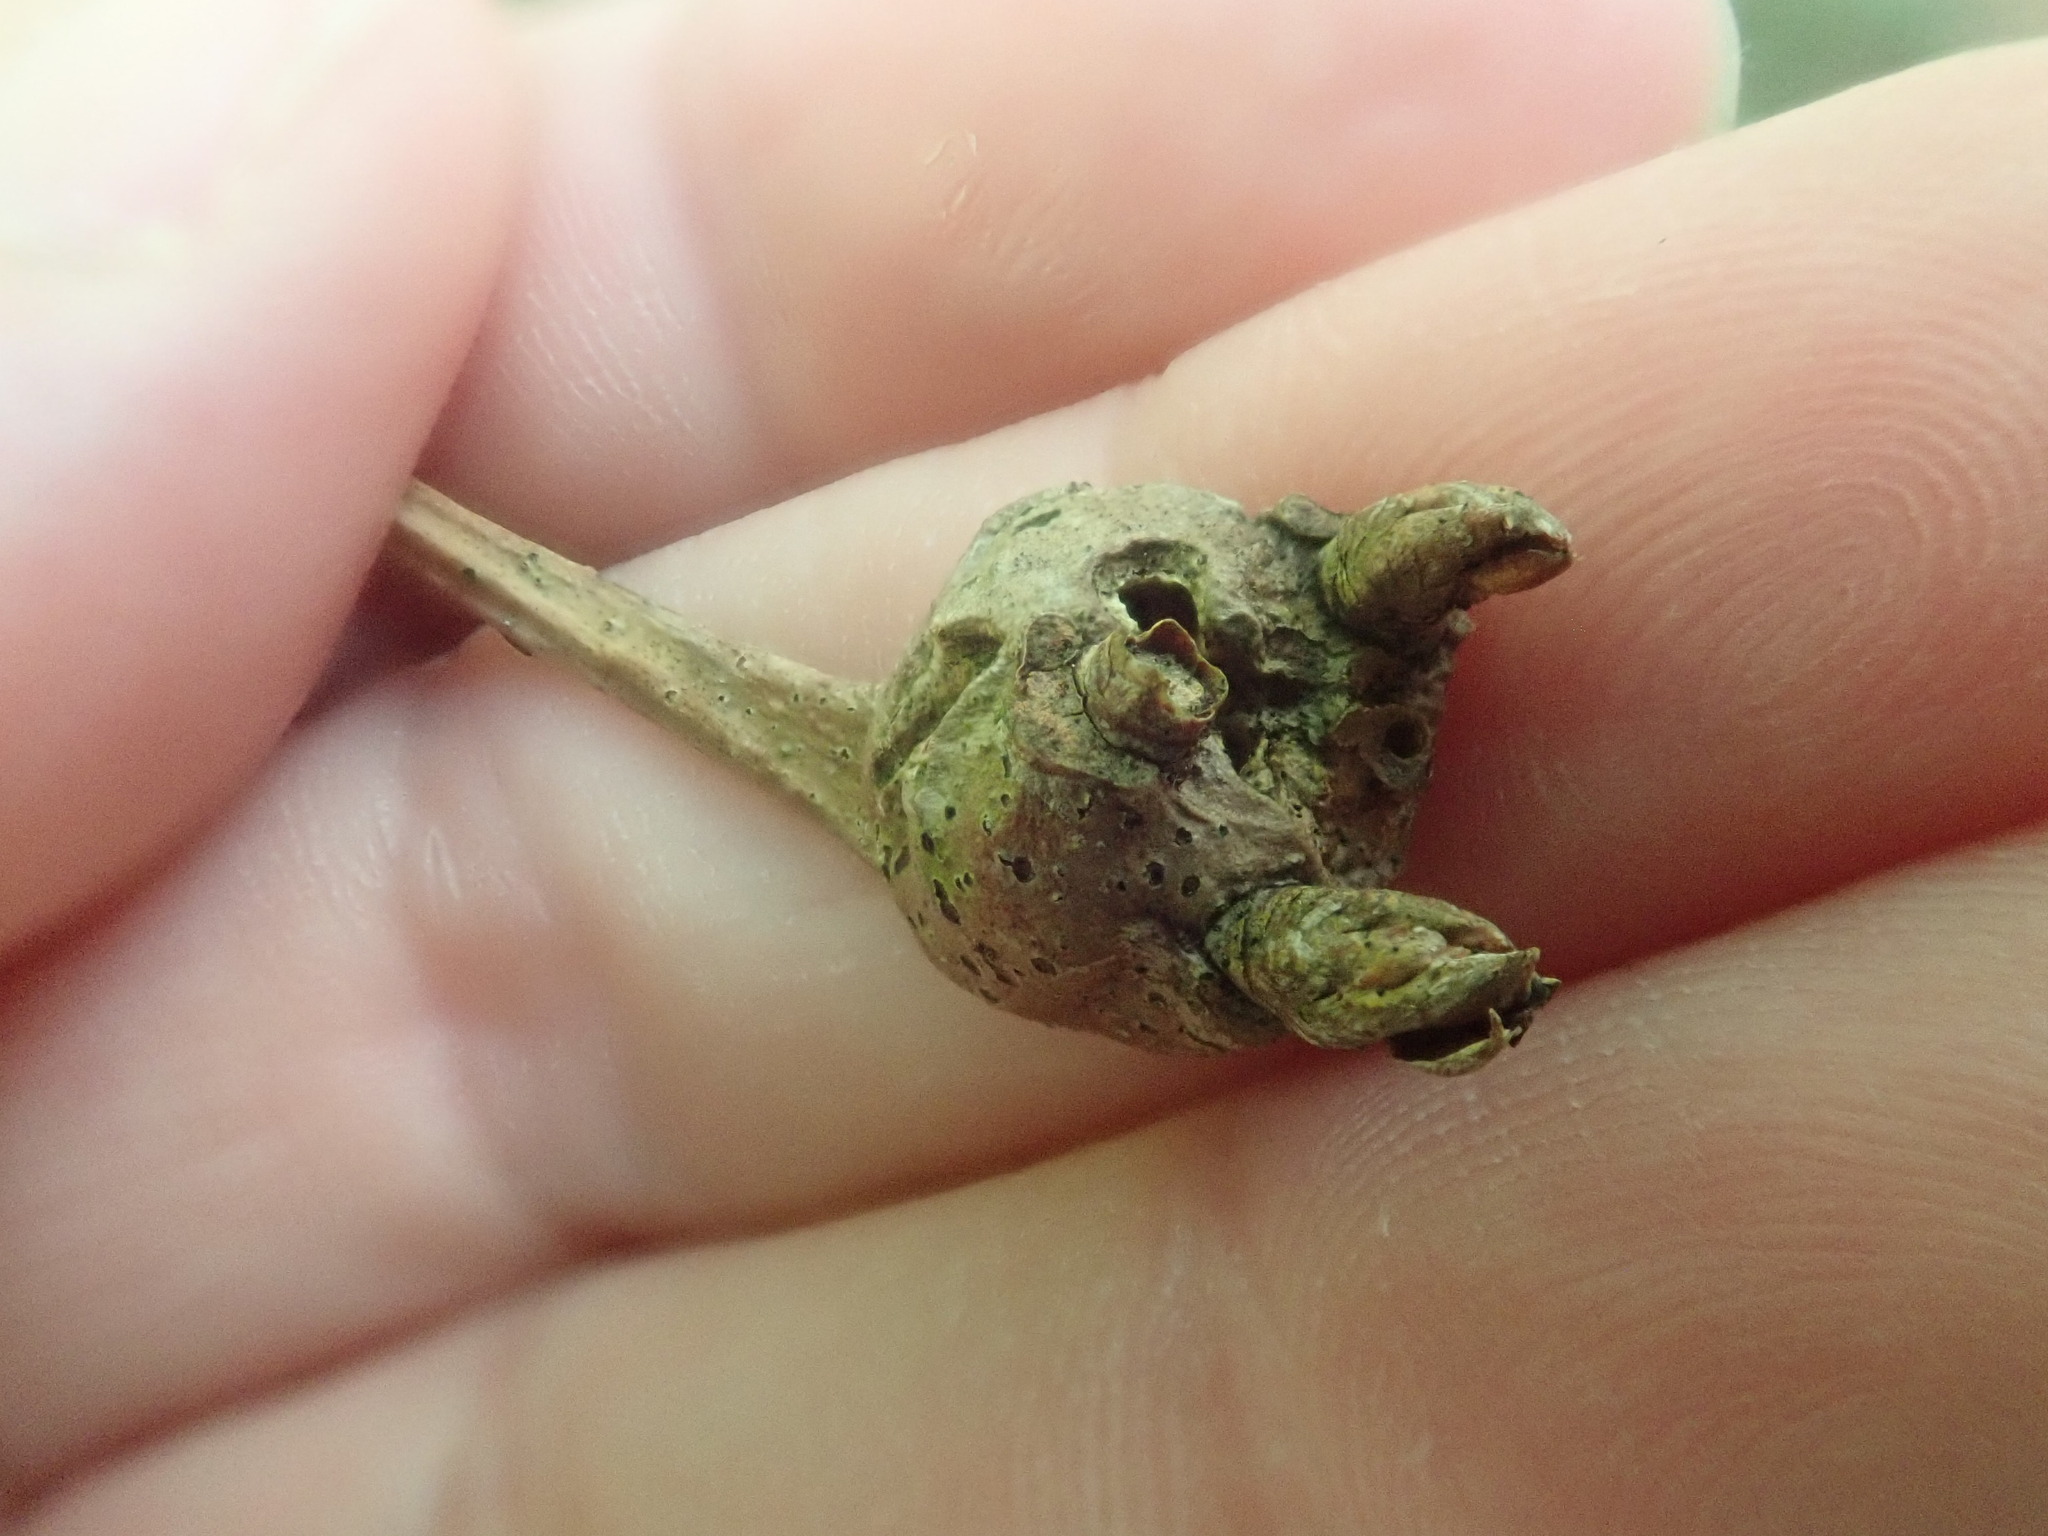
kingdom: Animalia
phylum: Arthropoda
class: Insecta
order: Hymenoptera
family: Cynipidae
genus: Callirhytis
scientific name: Callirhytis clavula
